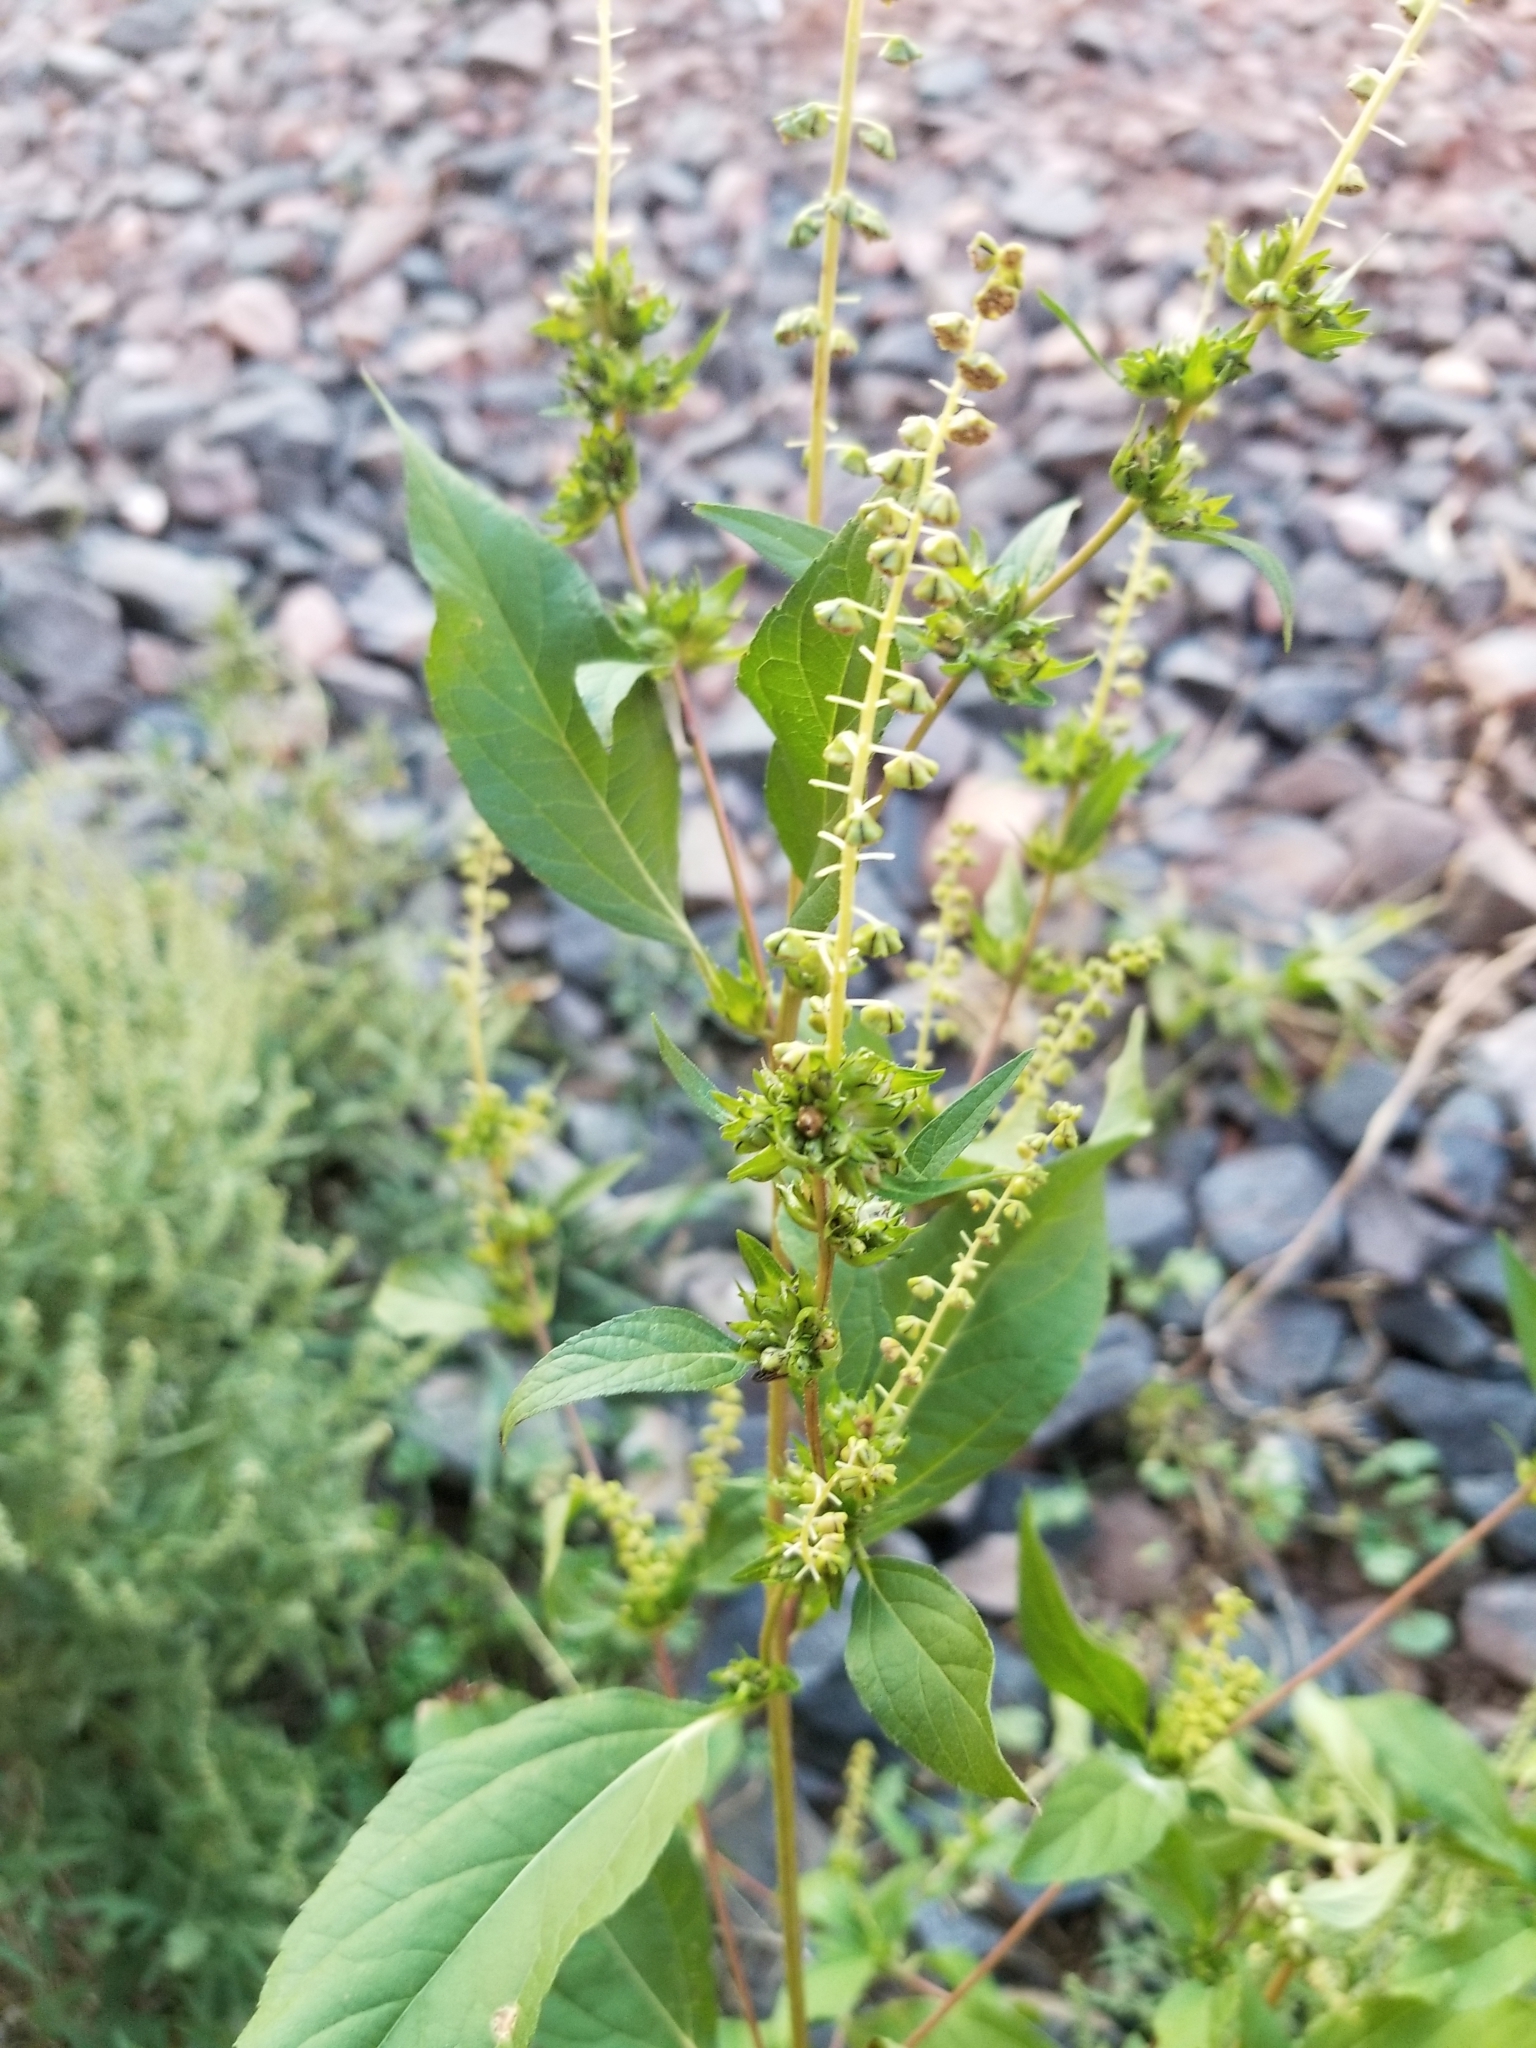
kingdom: Plantae
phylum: Tracheophyta
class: Magnoliopsida
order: Asterales
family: Asteraceae
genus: Ambrosia
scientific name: Ambrosia trifida
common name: Giant ragweed
